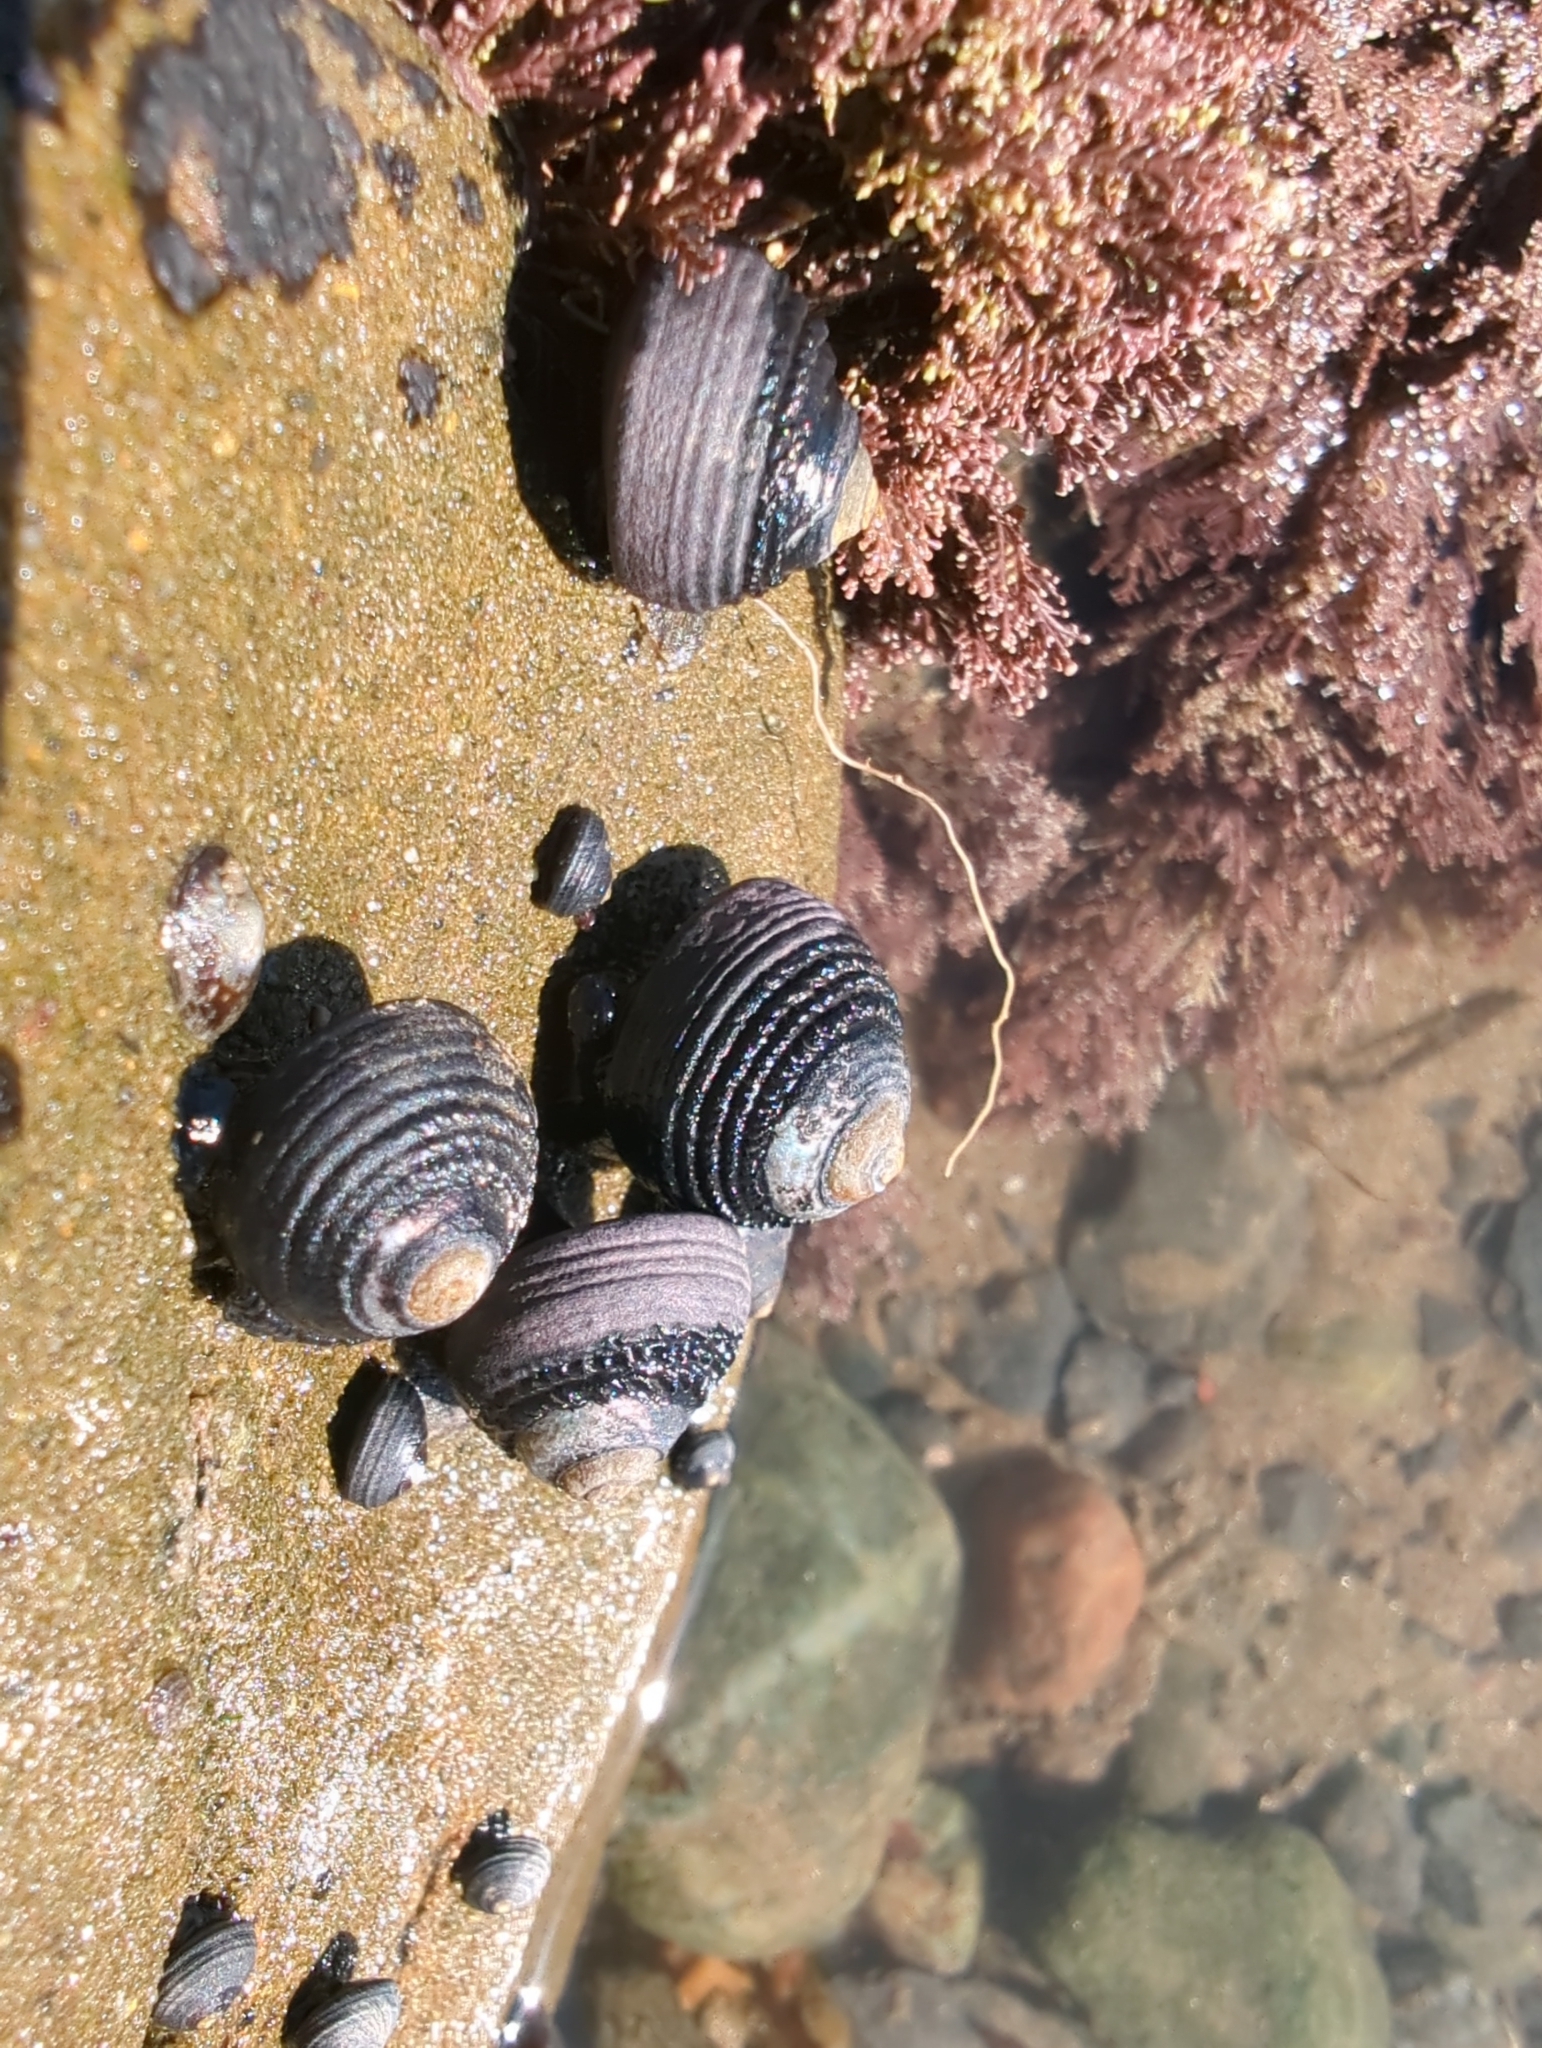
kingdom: Animalia
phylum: Mollusca
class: Gastropoda
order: Trochida
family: Tegulidae
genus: Tegula
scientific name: Tegula funebralis
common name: Black tegula
